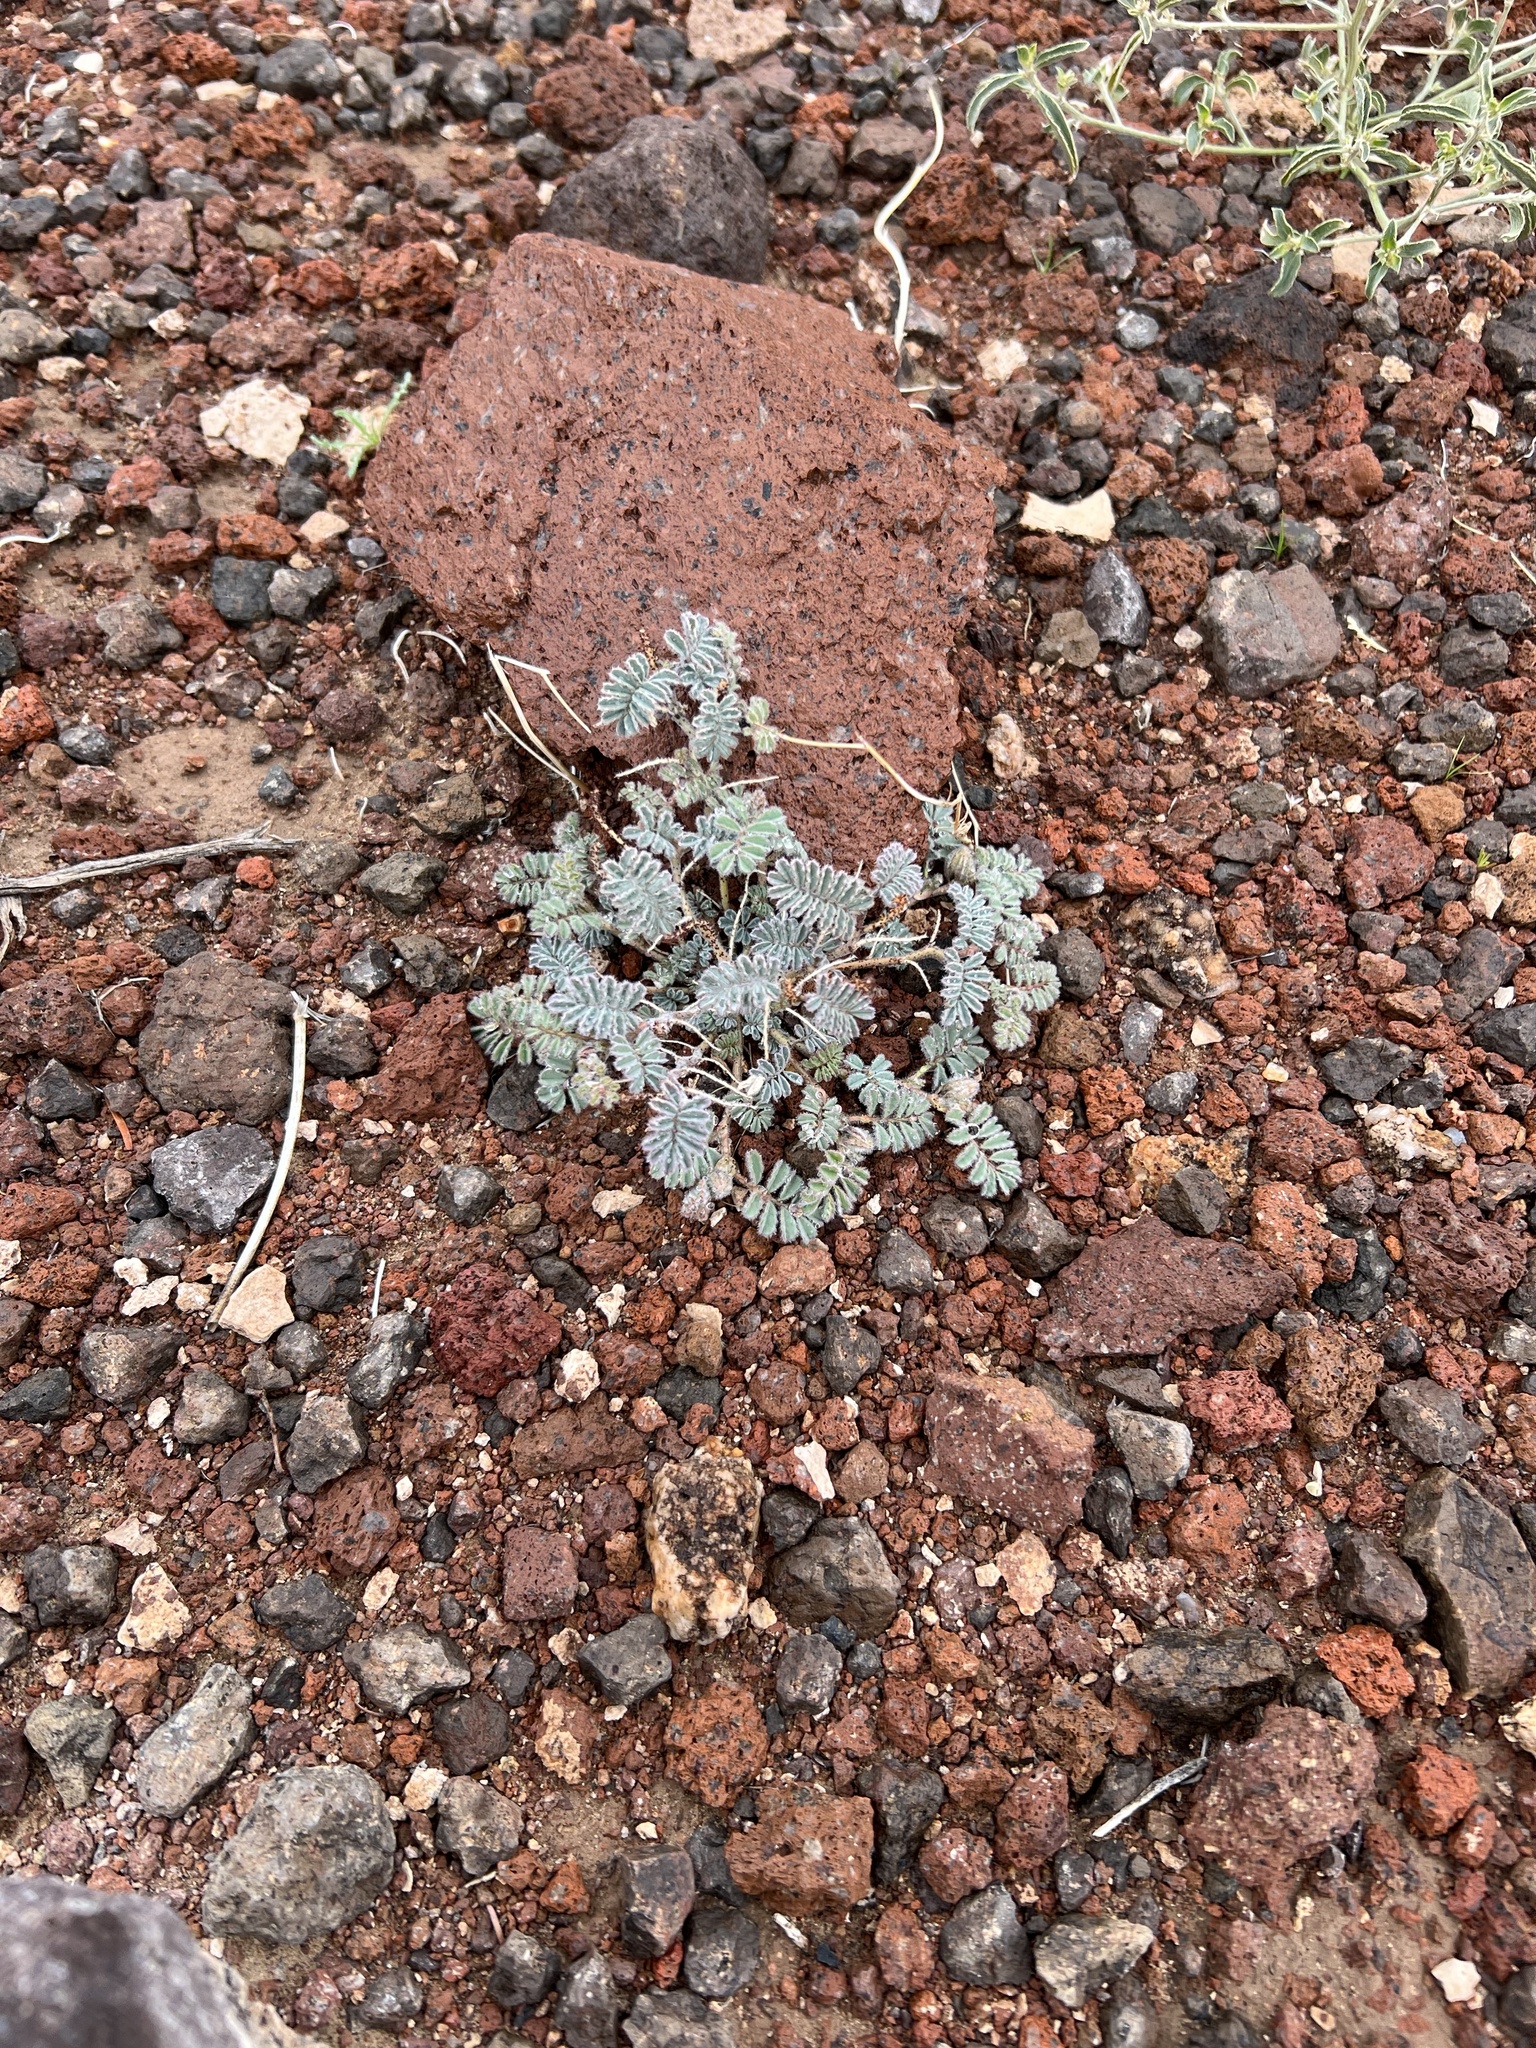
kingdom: Plantae
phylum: Tracheophyta
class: Magnoliopsida
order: Fabales
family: Fabaceae
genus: Dalea
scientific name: Dalea mollissima
